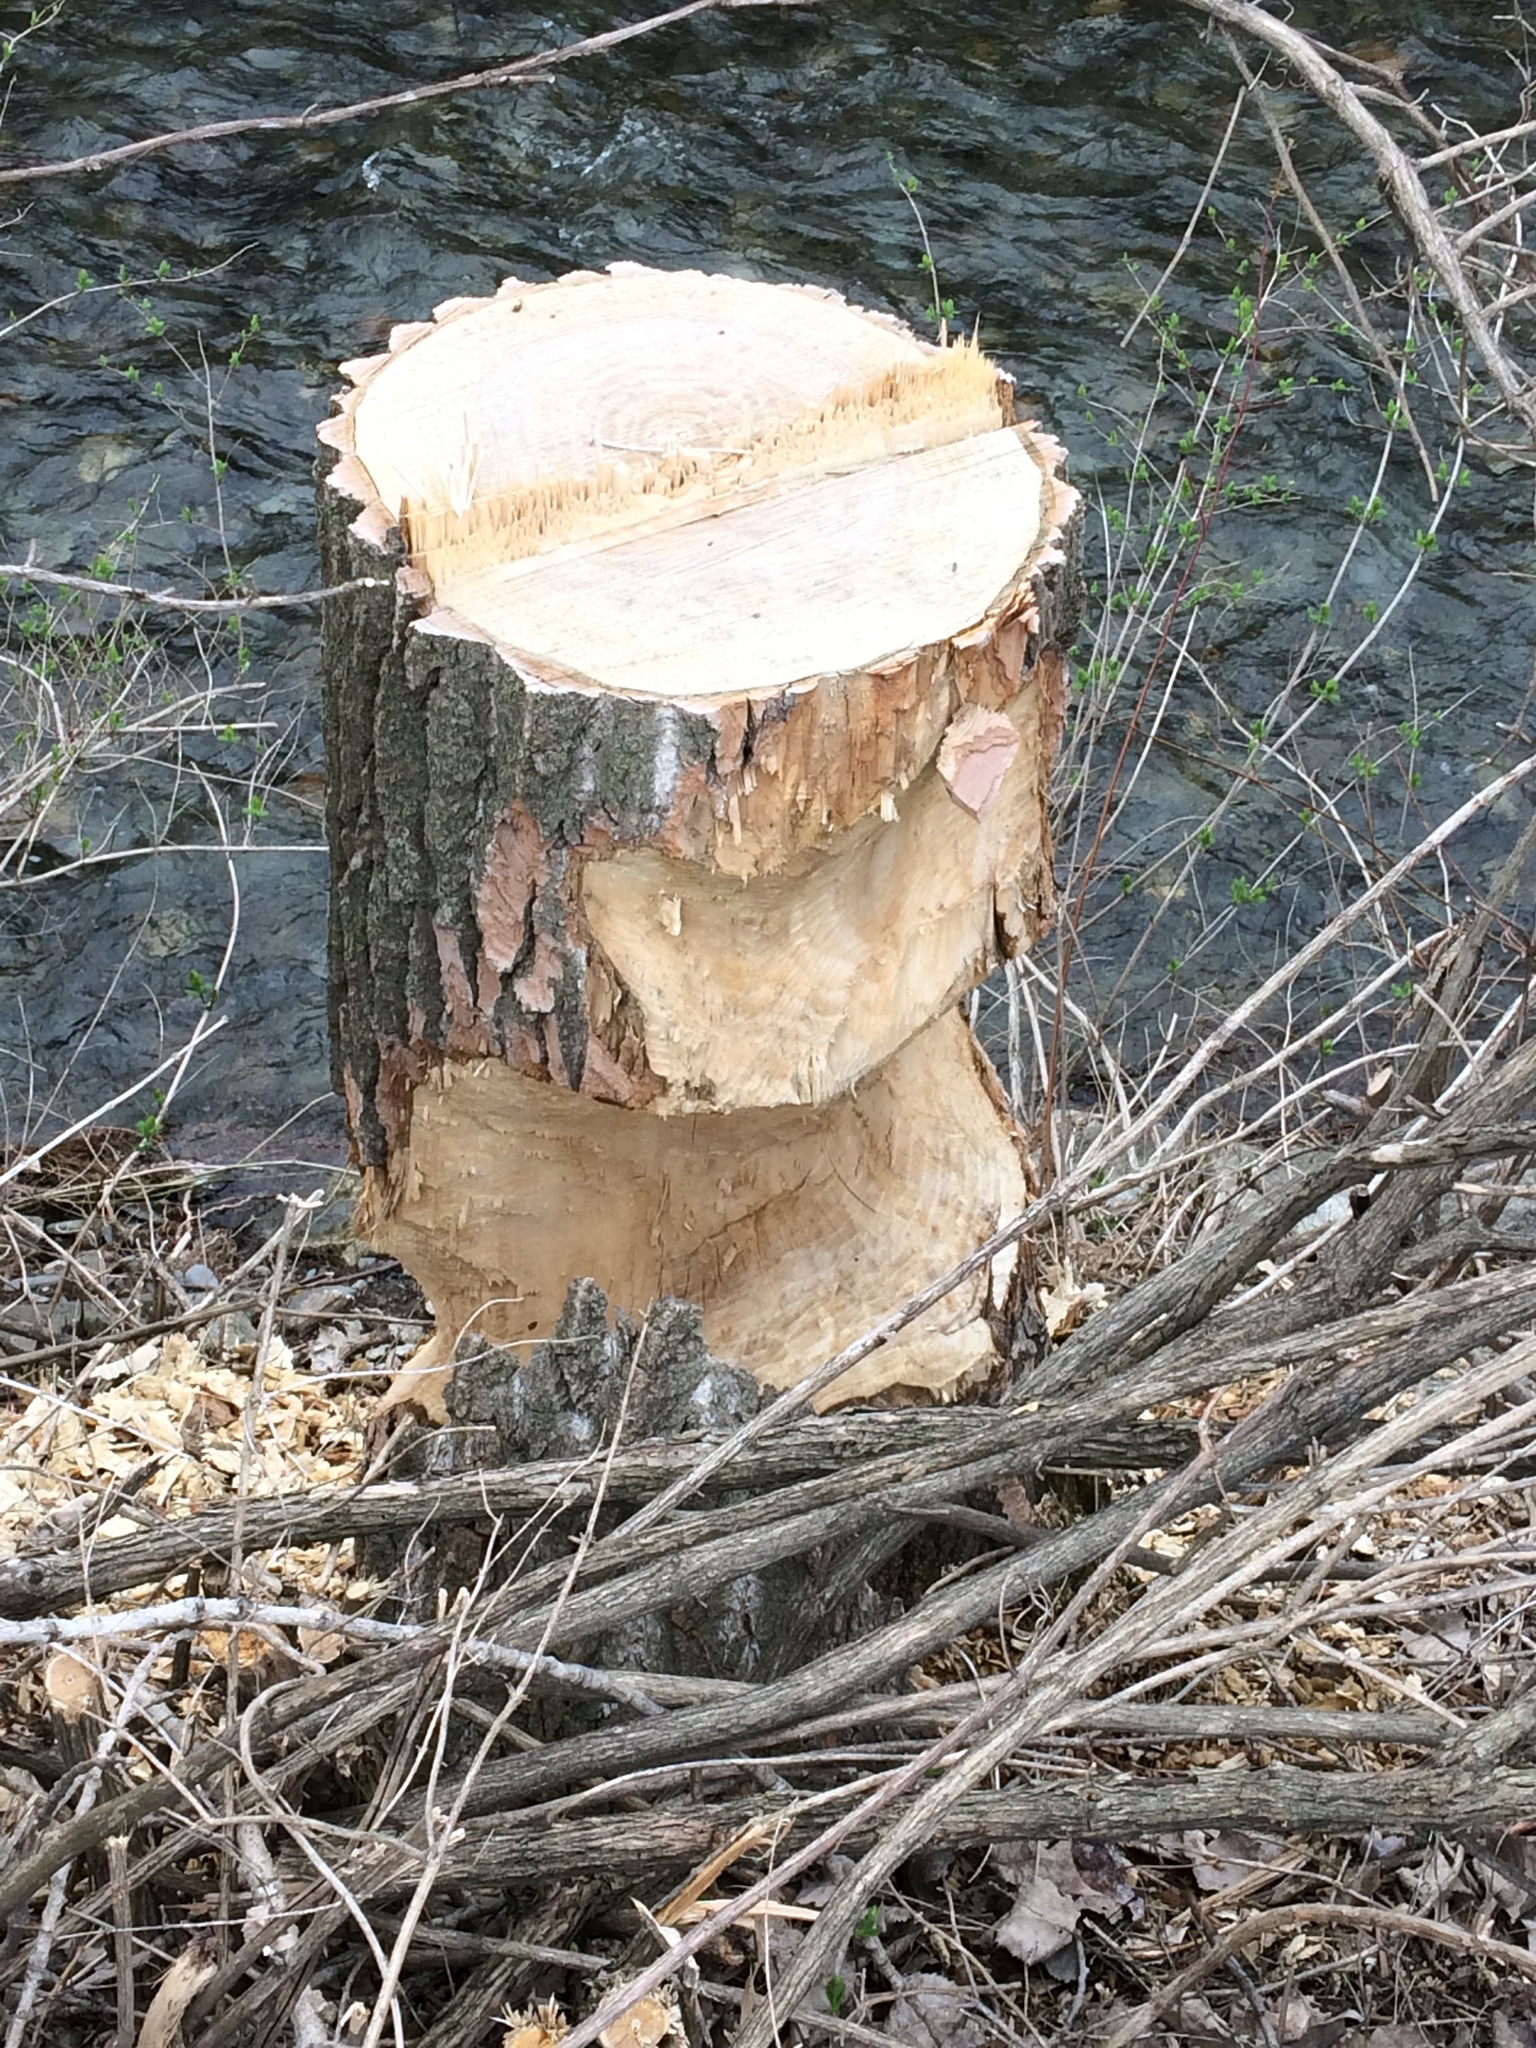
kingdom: Animalia
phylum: Chordata
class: Mammalia
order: Rodentia
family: Castoridae
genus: Castor
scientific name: Castor canadensis
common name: American beaver
